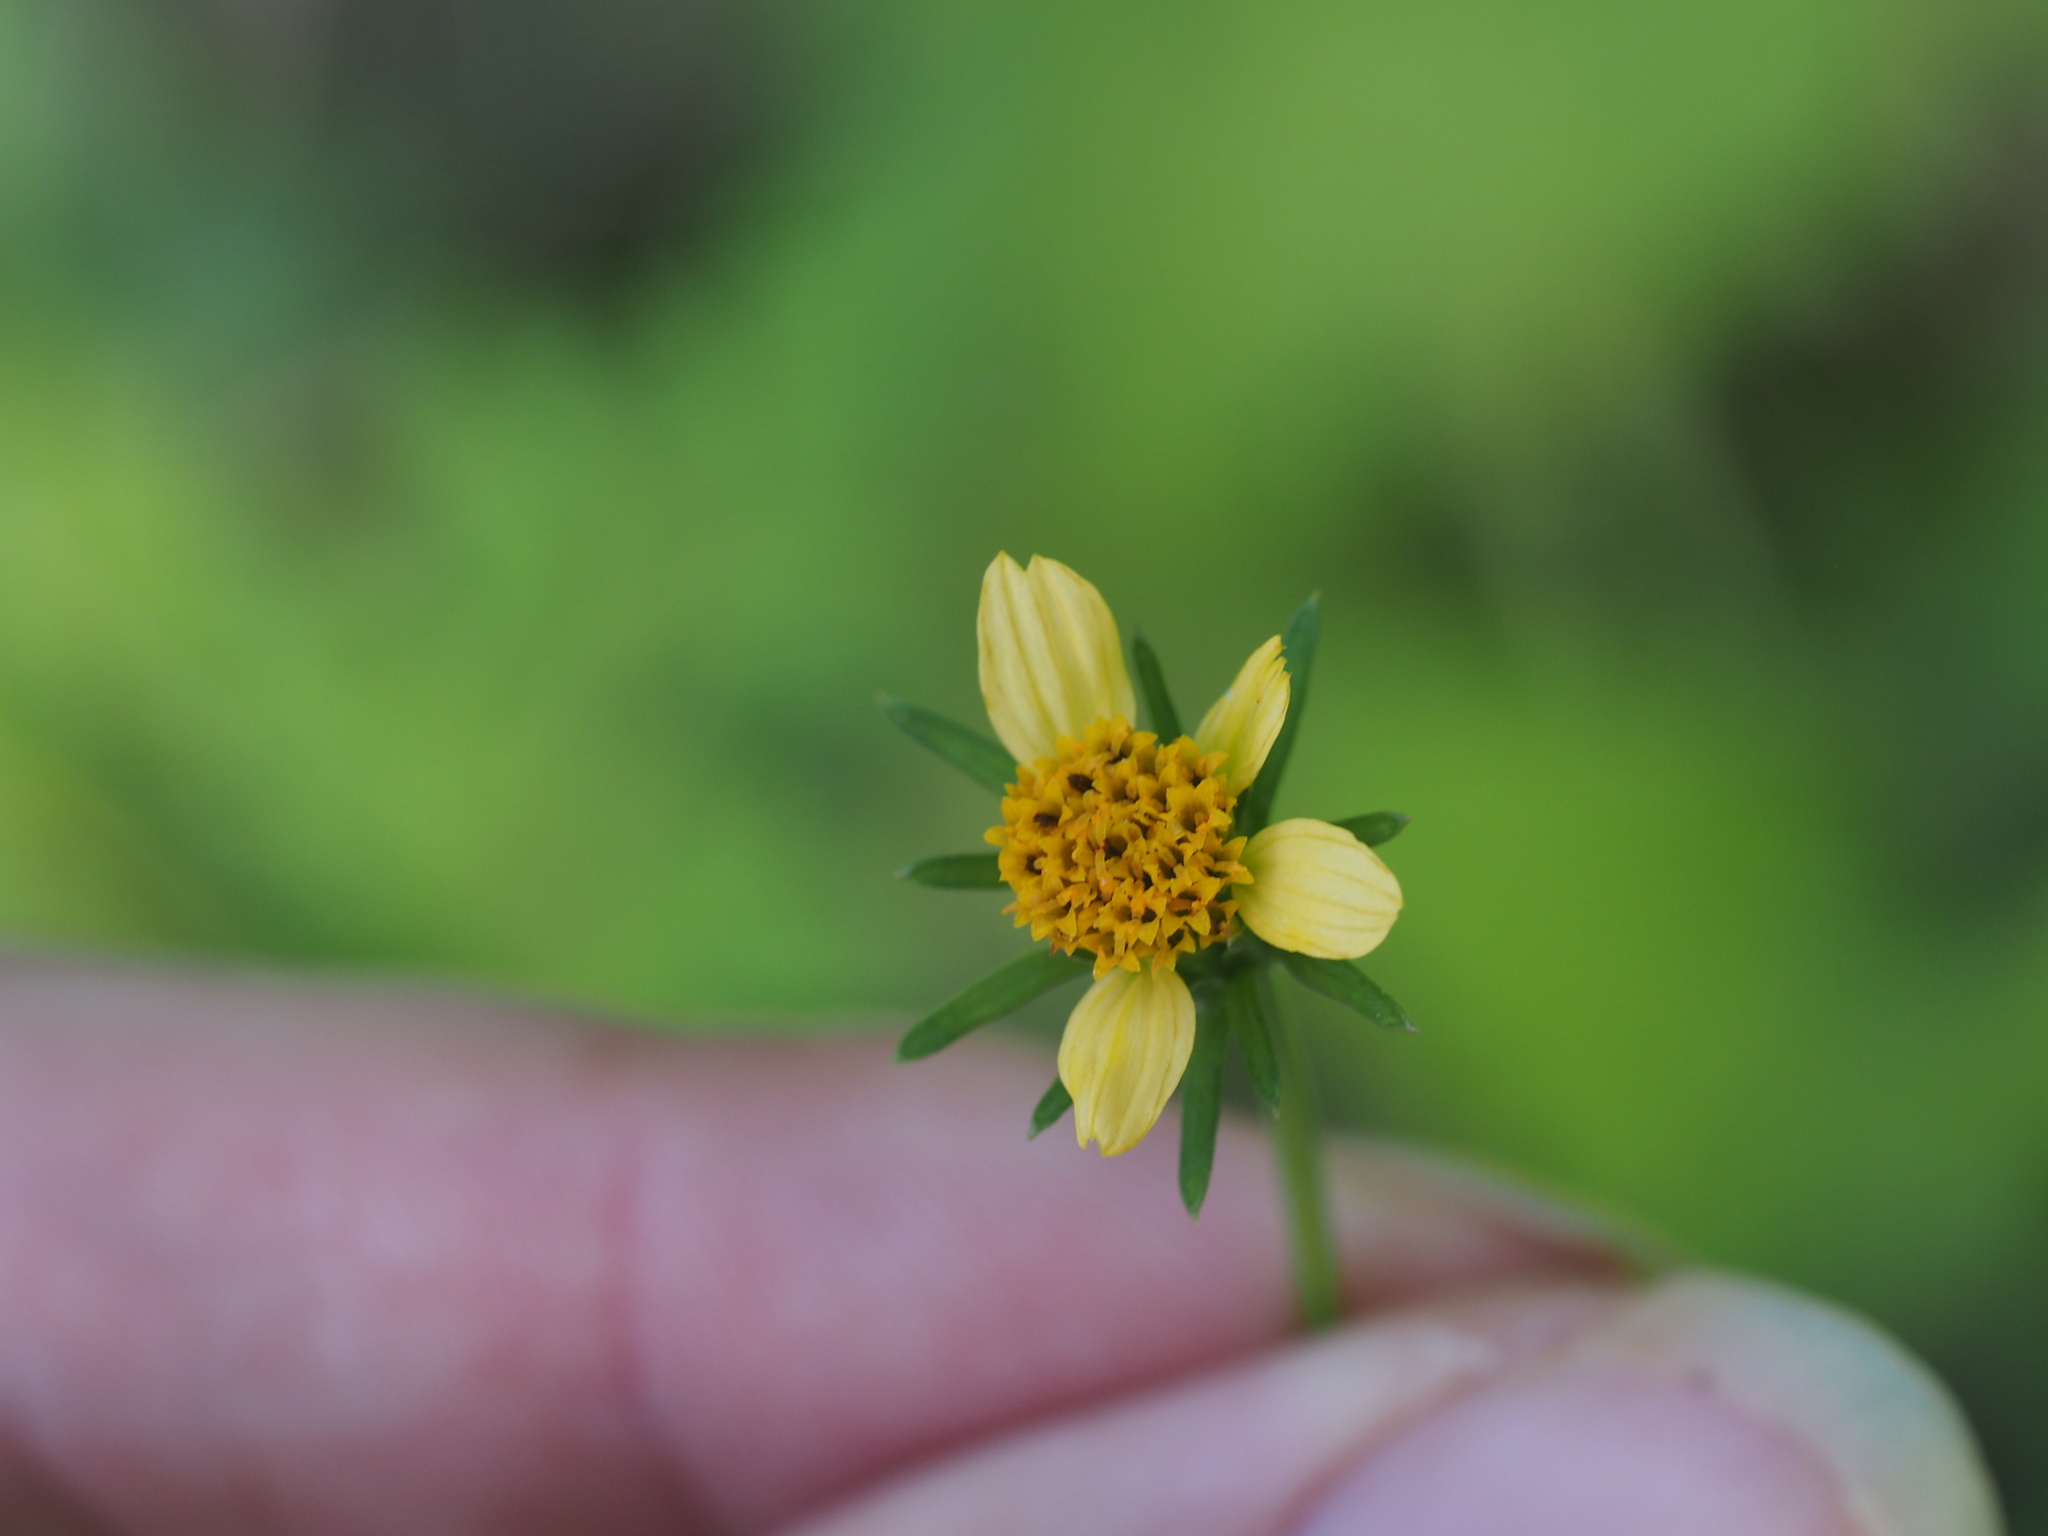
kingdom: Plantae
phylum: Tracheophyta
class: Magnoliopsida
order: Asterales
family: Asteraceae
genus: Bidens
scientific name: Bidens cynapiifolia
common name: Beggar's tick
